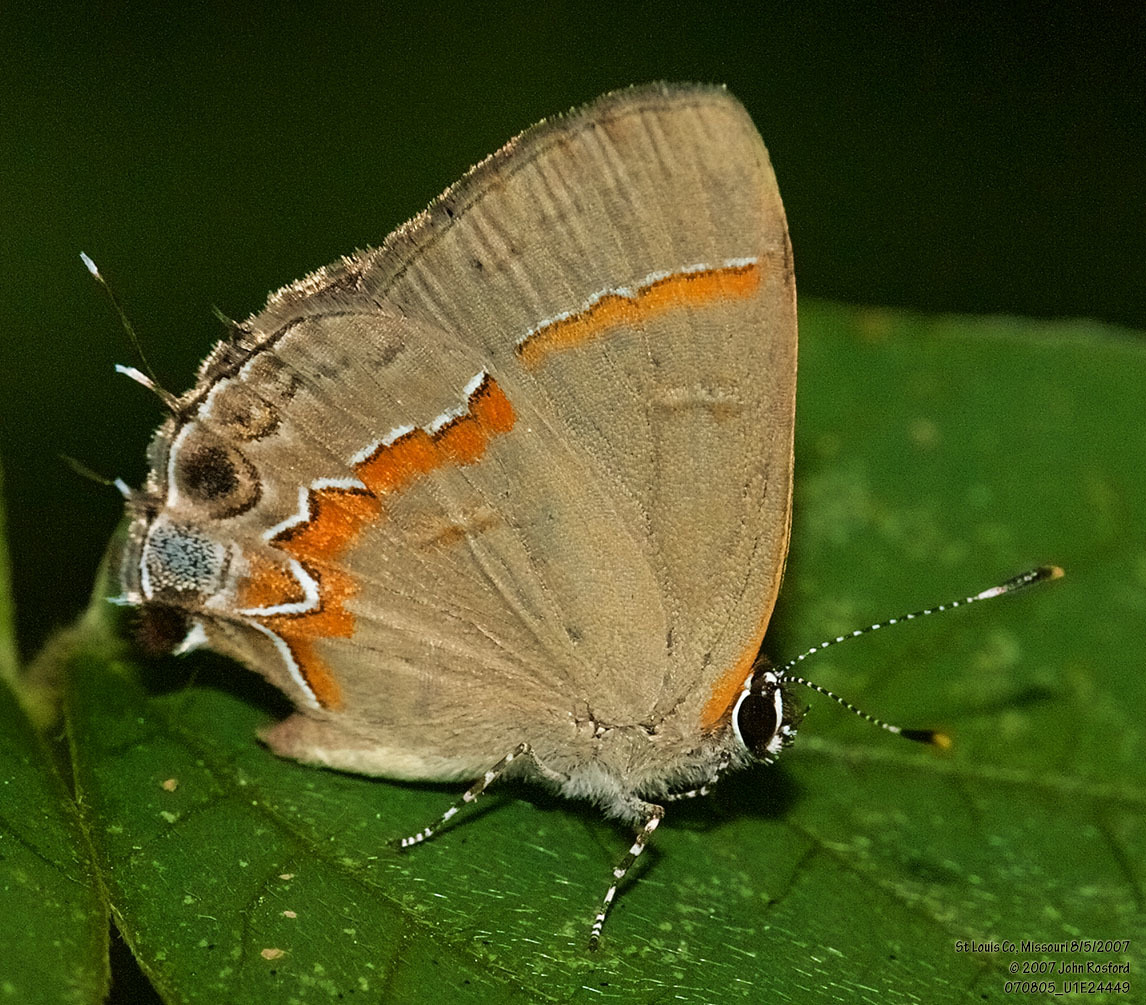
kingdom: Animalia
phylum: Arthropoda
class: Insecta
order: Lepidoptera
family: Lycaenidae
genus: Calycopis
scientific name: Calycopis cecrops
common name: Red-banded hairstreak
